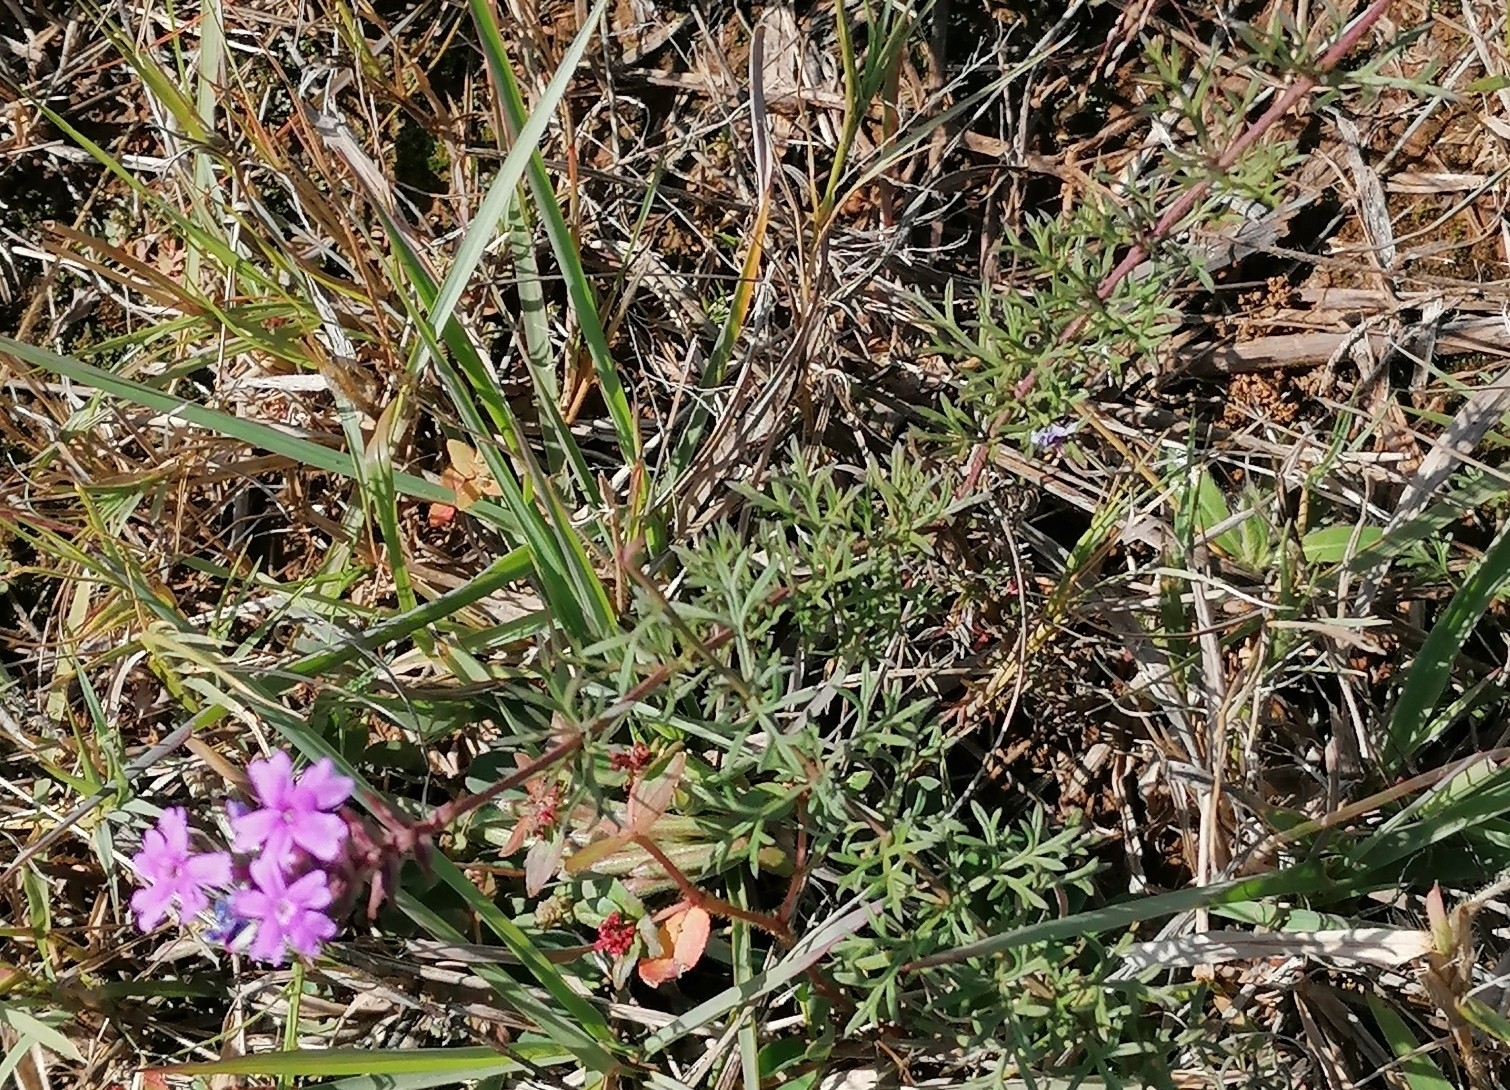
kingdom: Plantae
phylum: Tracheophyta
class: Magnoliopsida
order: Lamiales
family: Verbenaceae
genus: Verbena
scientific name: Verbena aristigera
